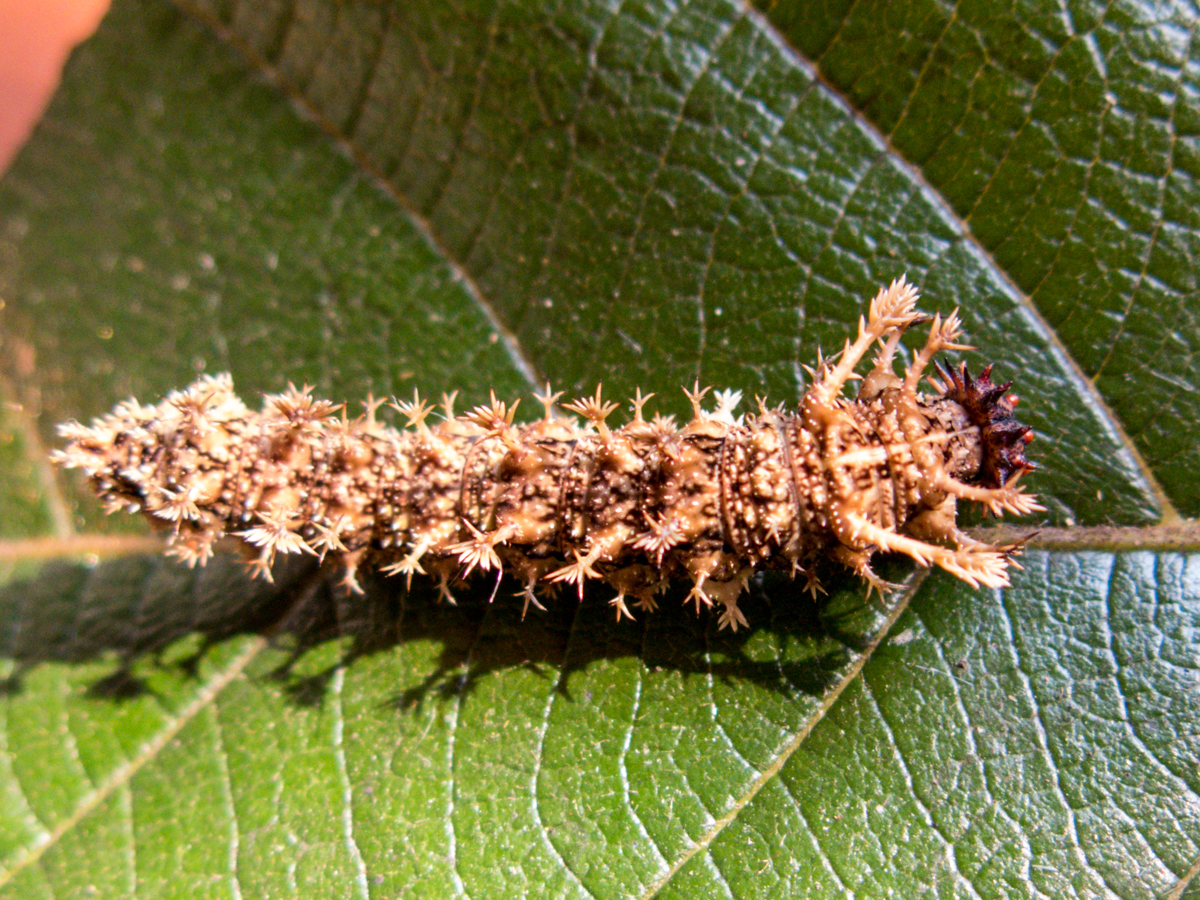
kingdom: Animalia
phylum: Arthropoda
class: Insecta
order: Lepidoptera
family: Nymphalidae
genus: Limenitis
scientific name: Limenitis Moduza procris
